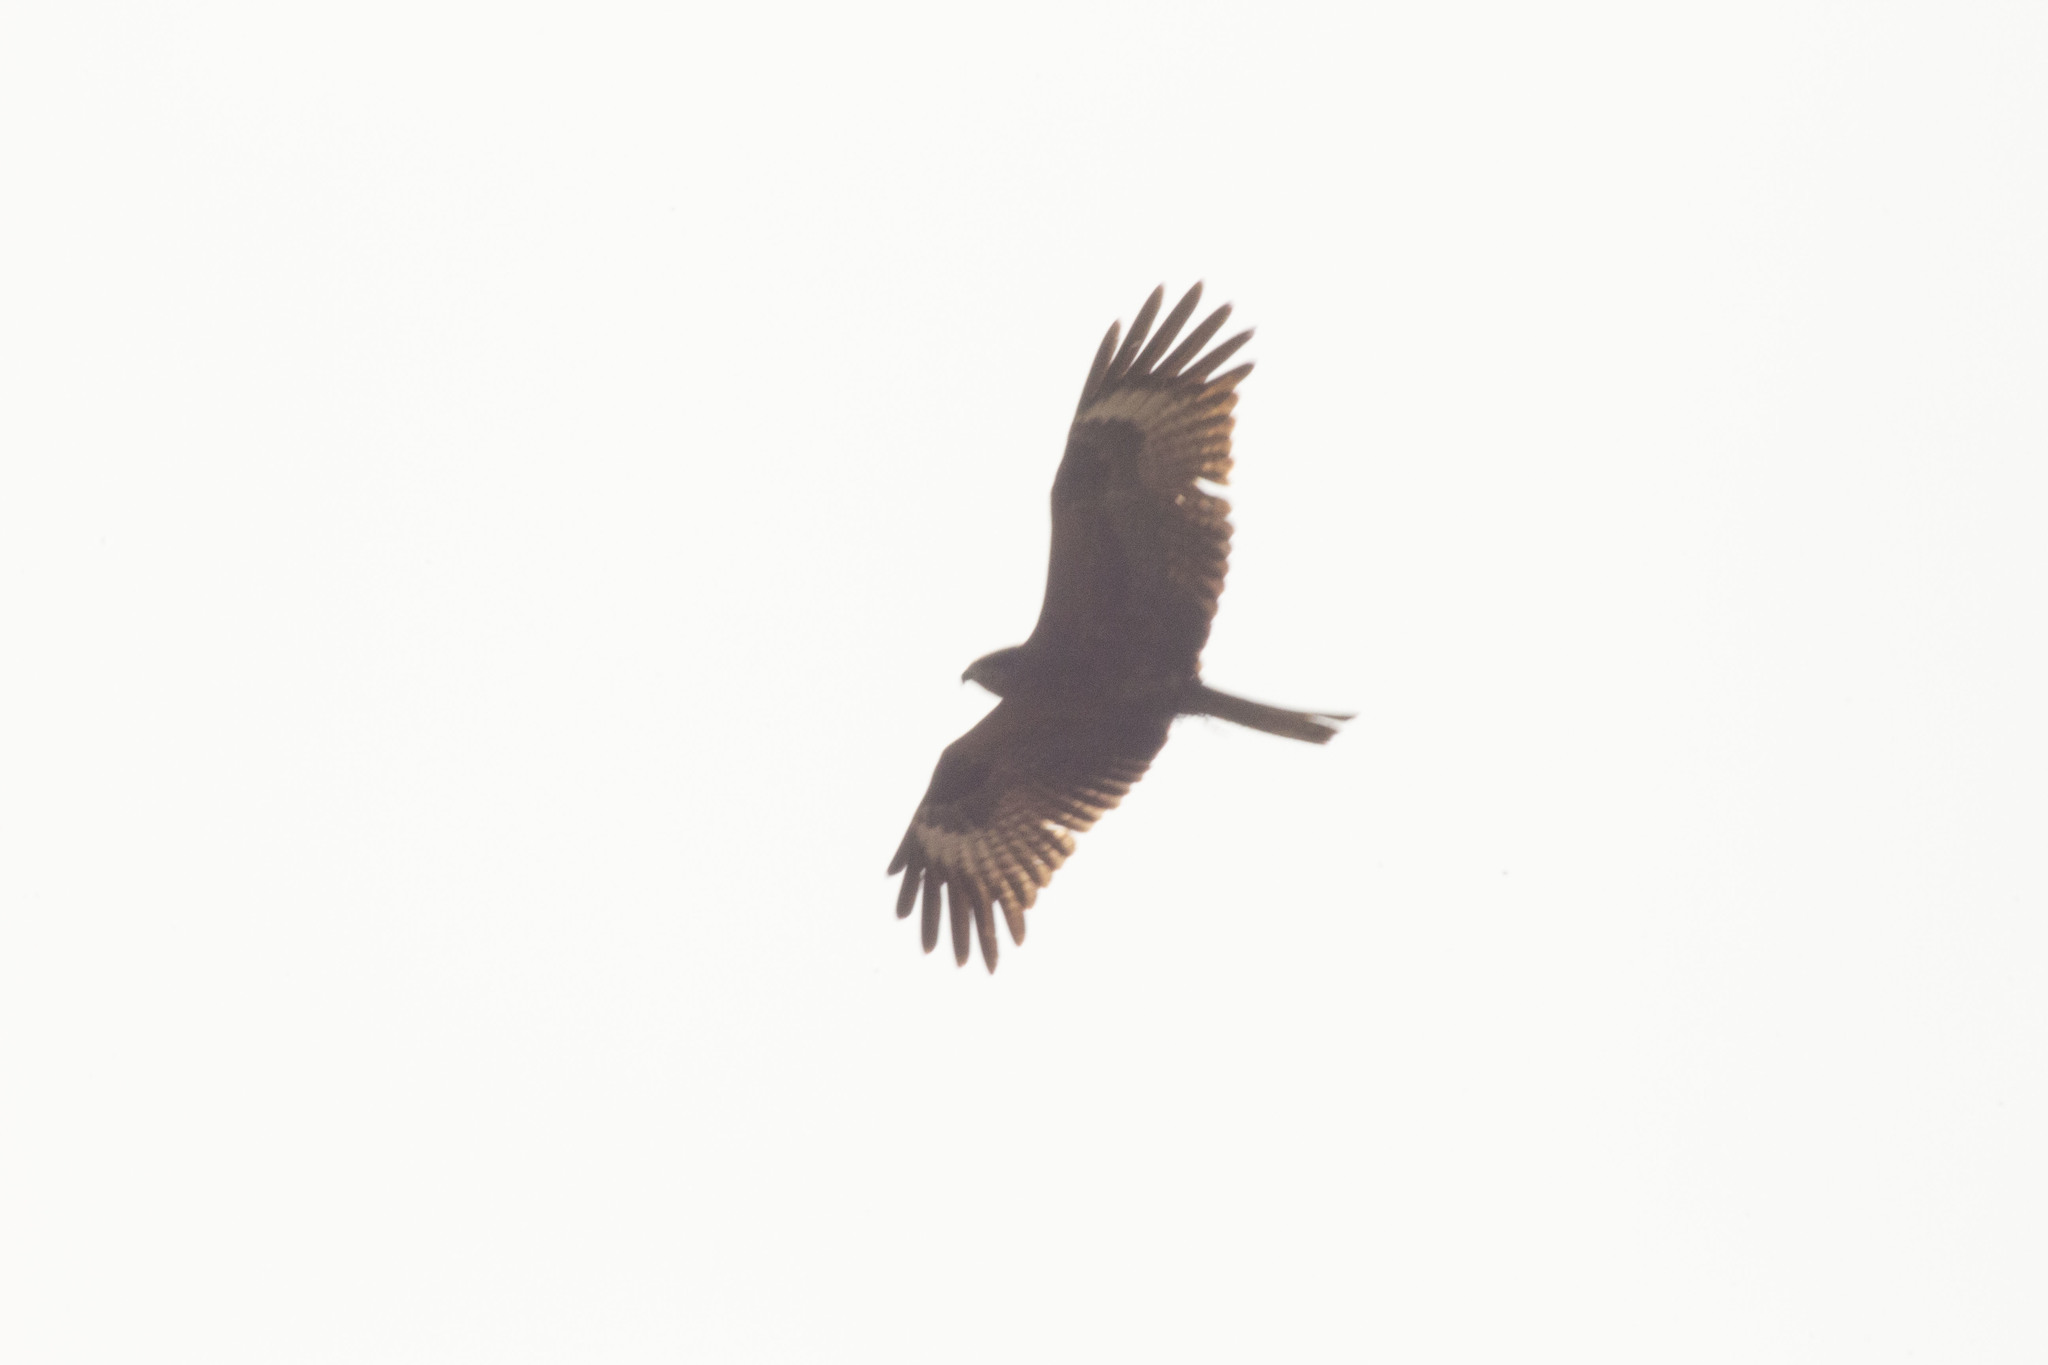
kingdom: Animalia
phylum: Chordata
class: Aves
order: Accipitriformes
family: Accipitridae
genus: Milvus
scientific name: Milvus migrans
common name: Black kite
